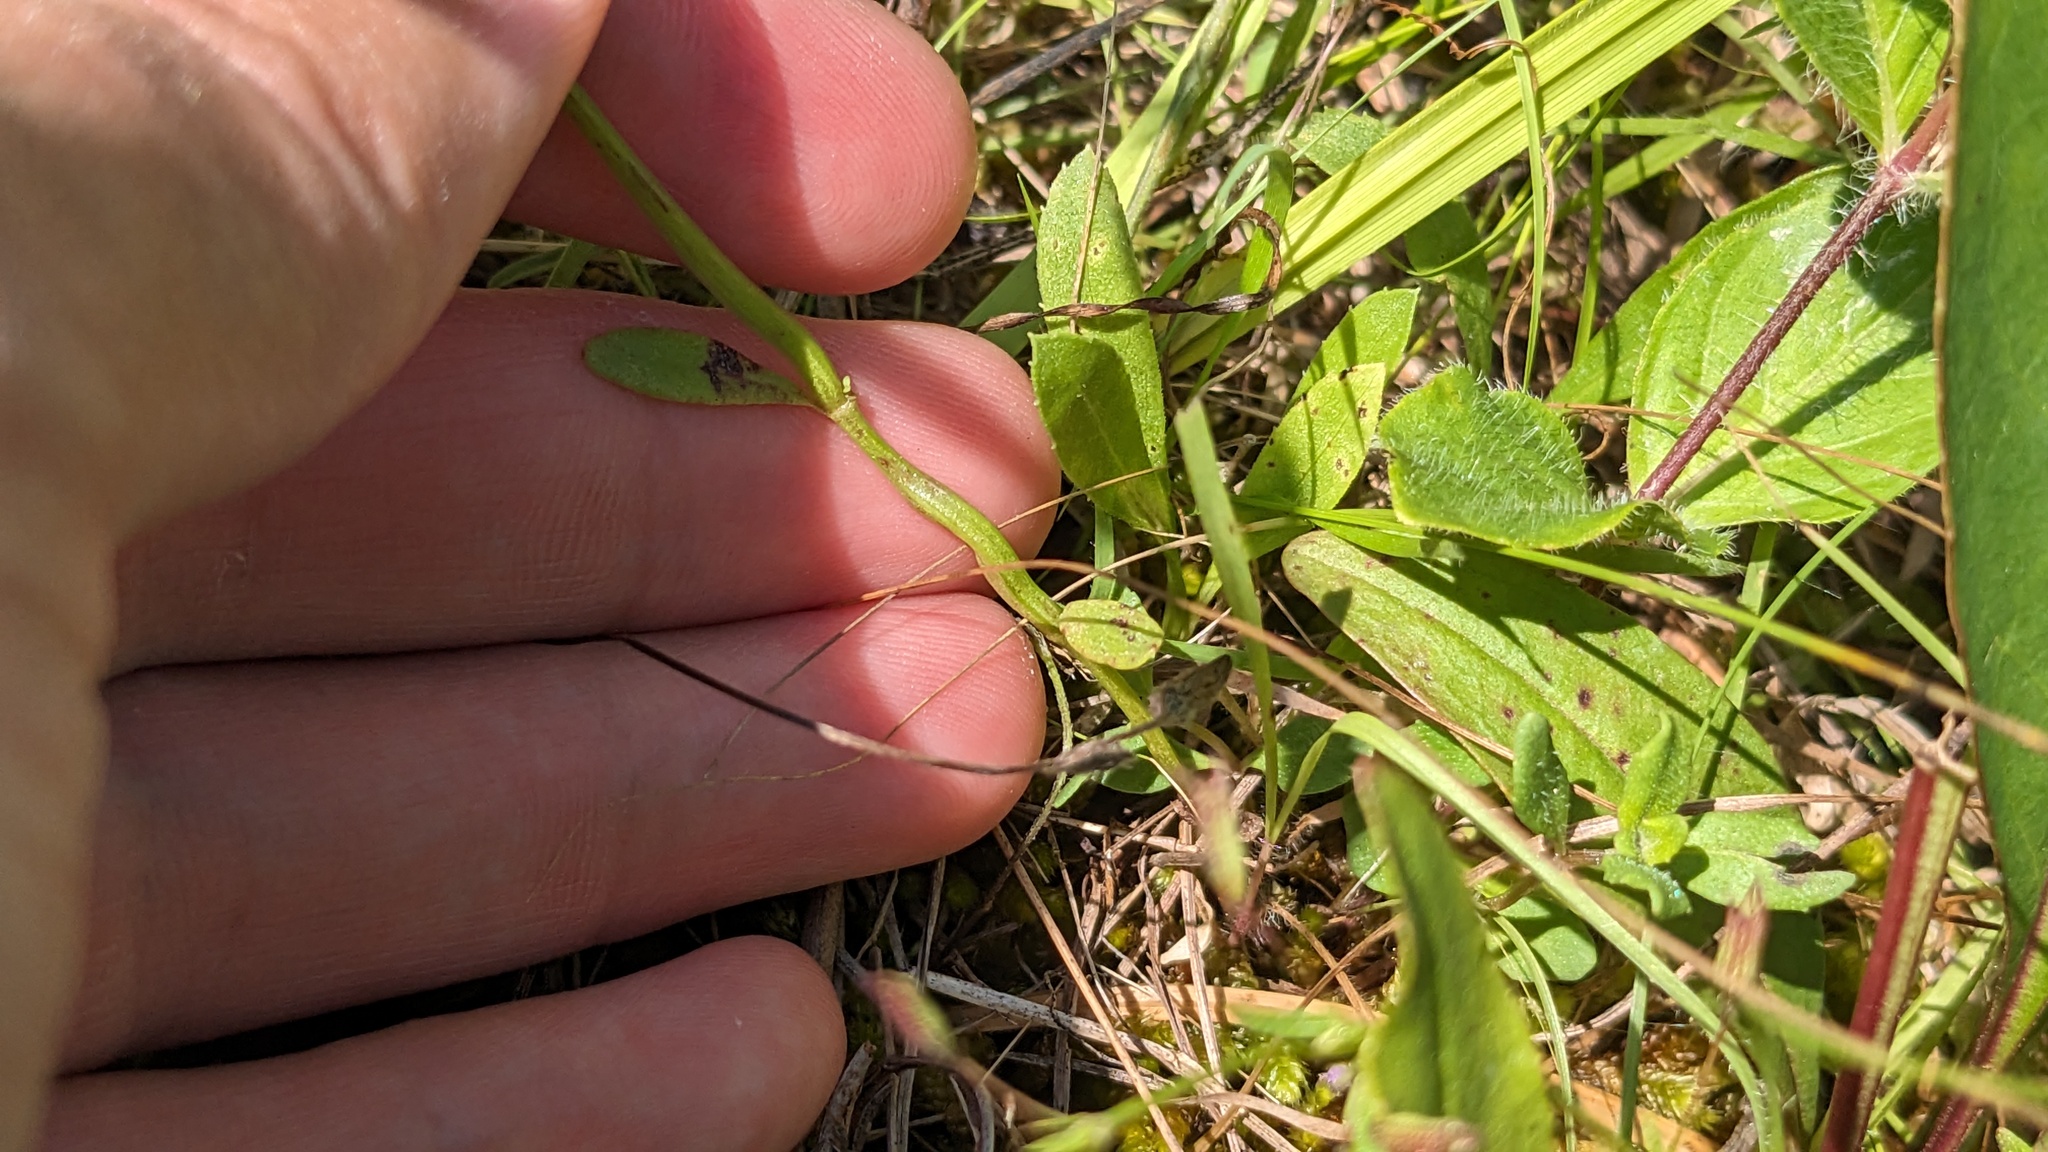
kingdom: Plantae
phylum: Tracheophyta
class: Magnoliopsida
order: Lamiales
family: Lamiaceae
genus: Clinopodium
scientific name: Clinopodium arkansanum
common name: Limestone calamint
